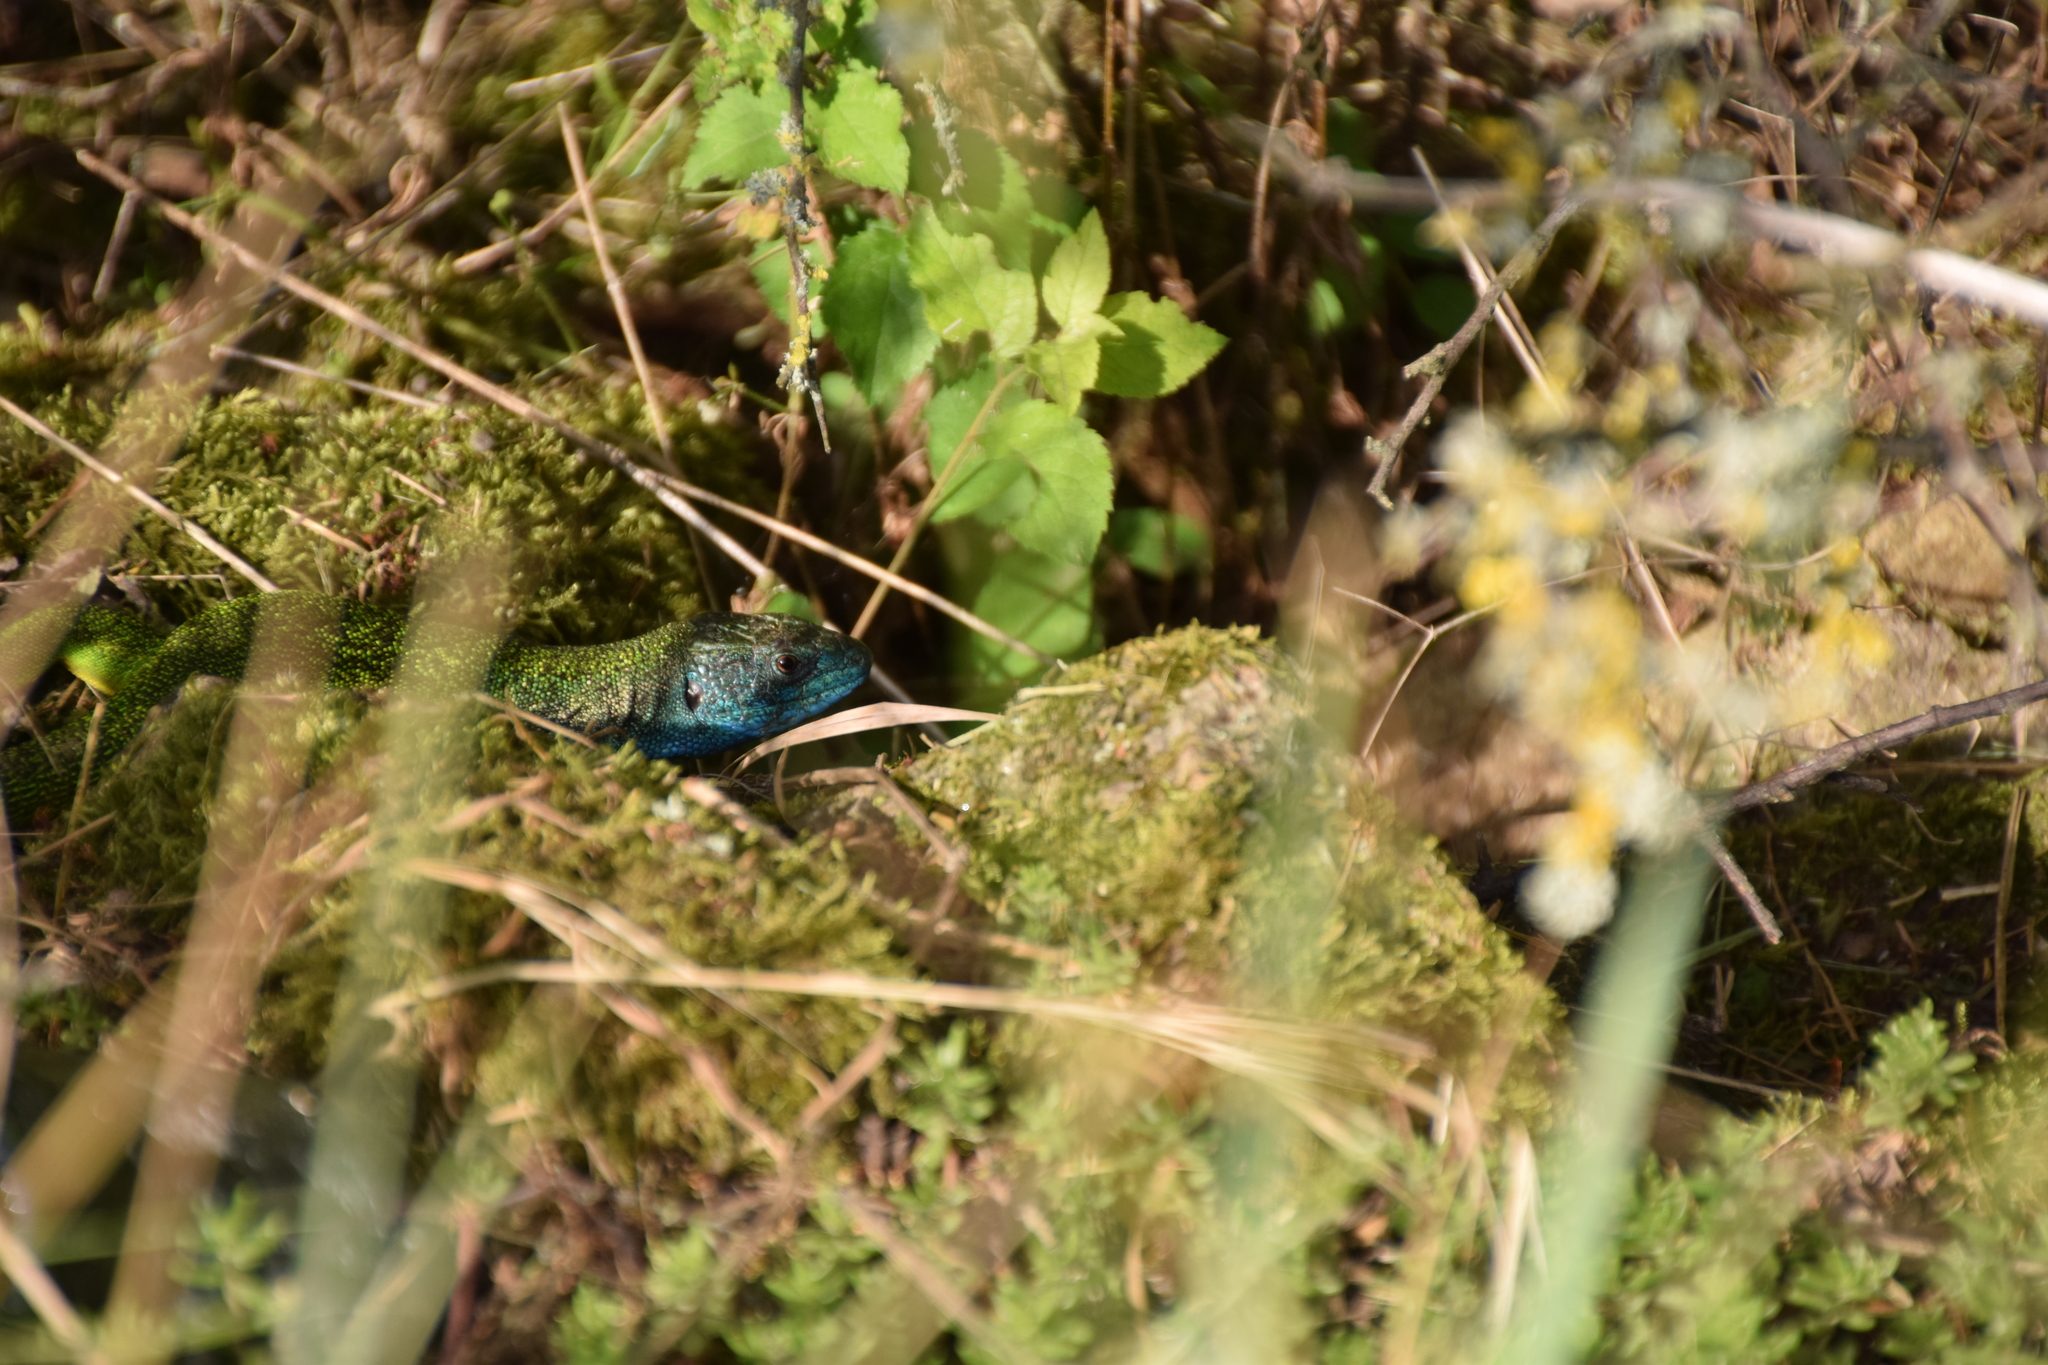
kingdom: Animalia
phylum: Chordata
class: Squamata
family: Lacertidae
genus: Lacerta
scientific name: Lacerta bilineata
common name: Western green lizard
